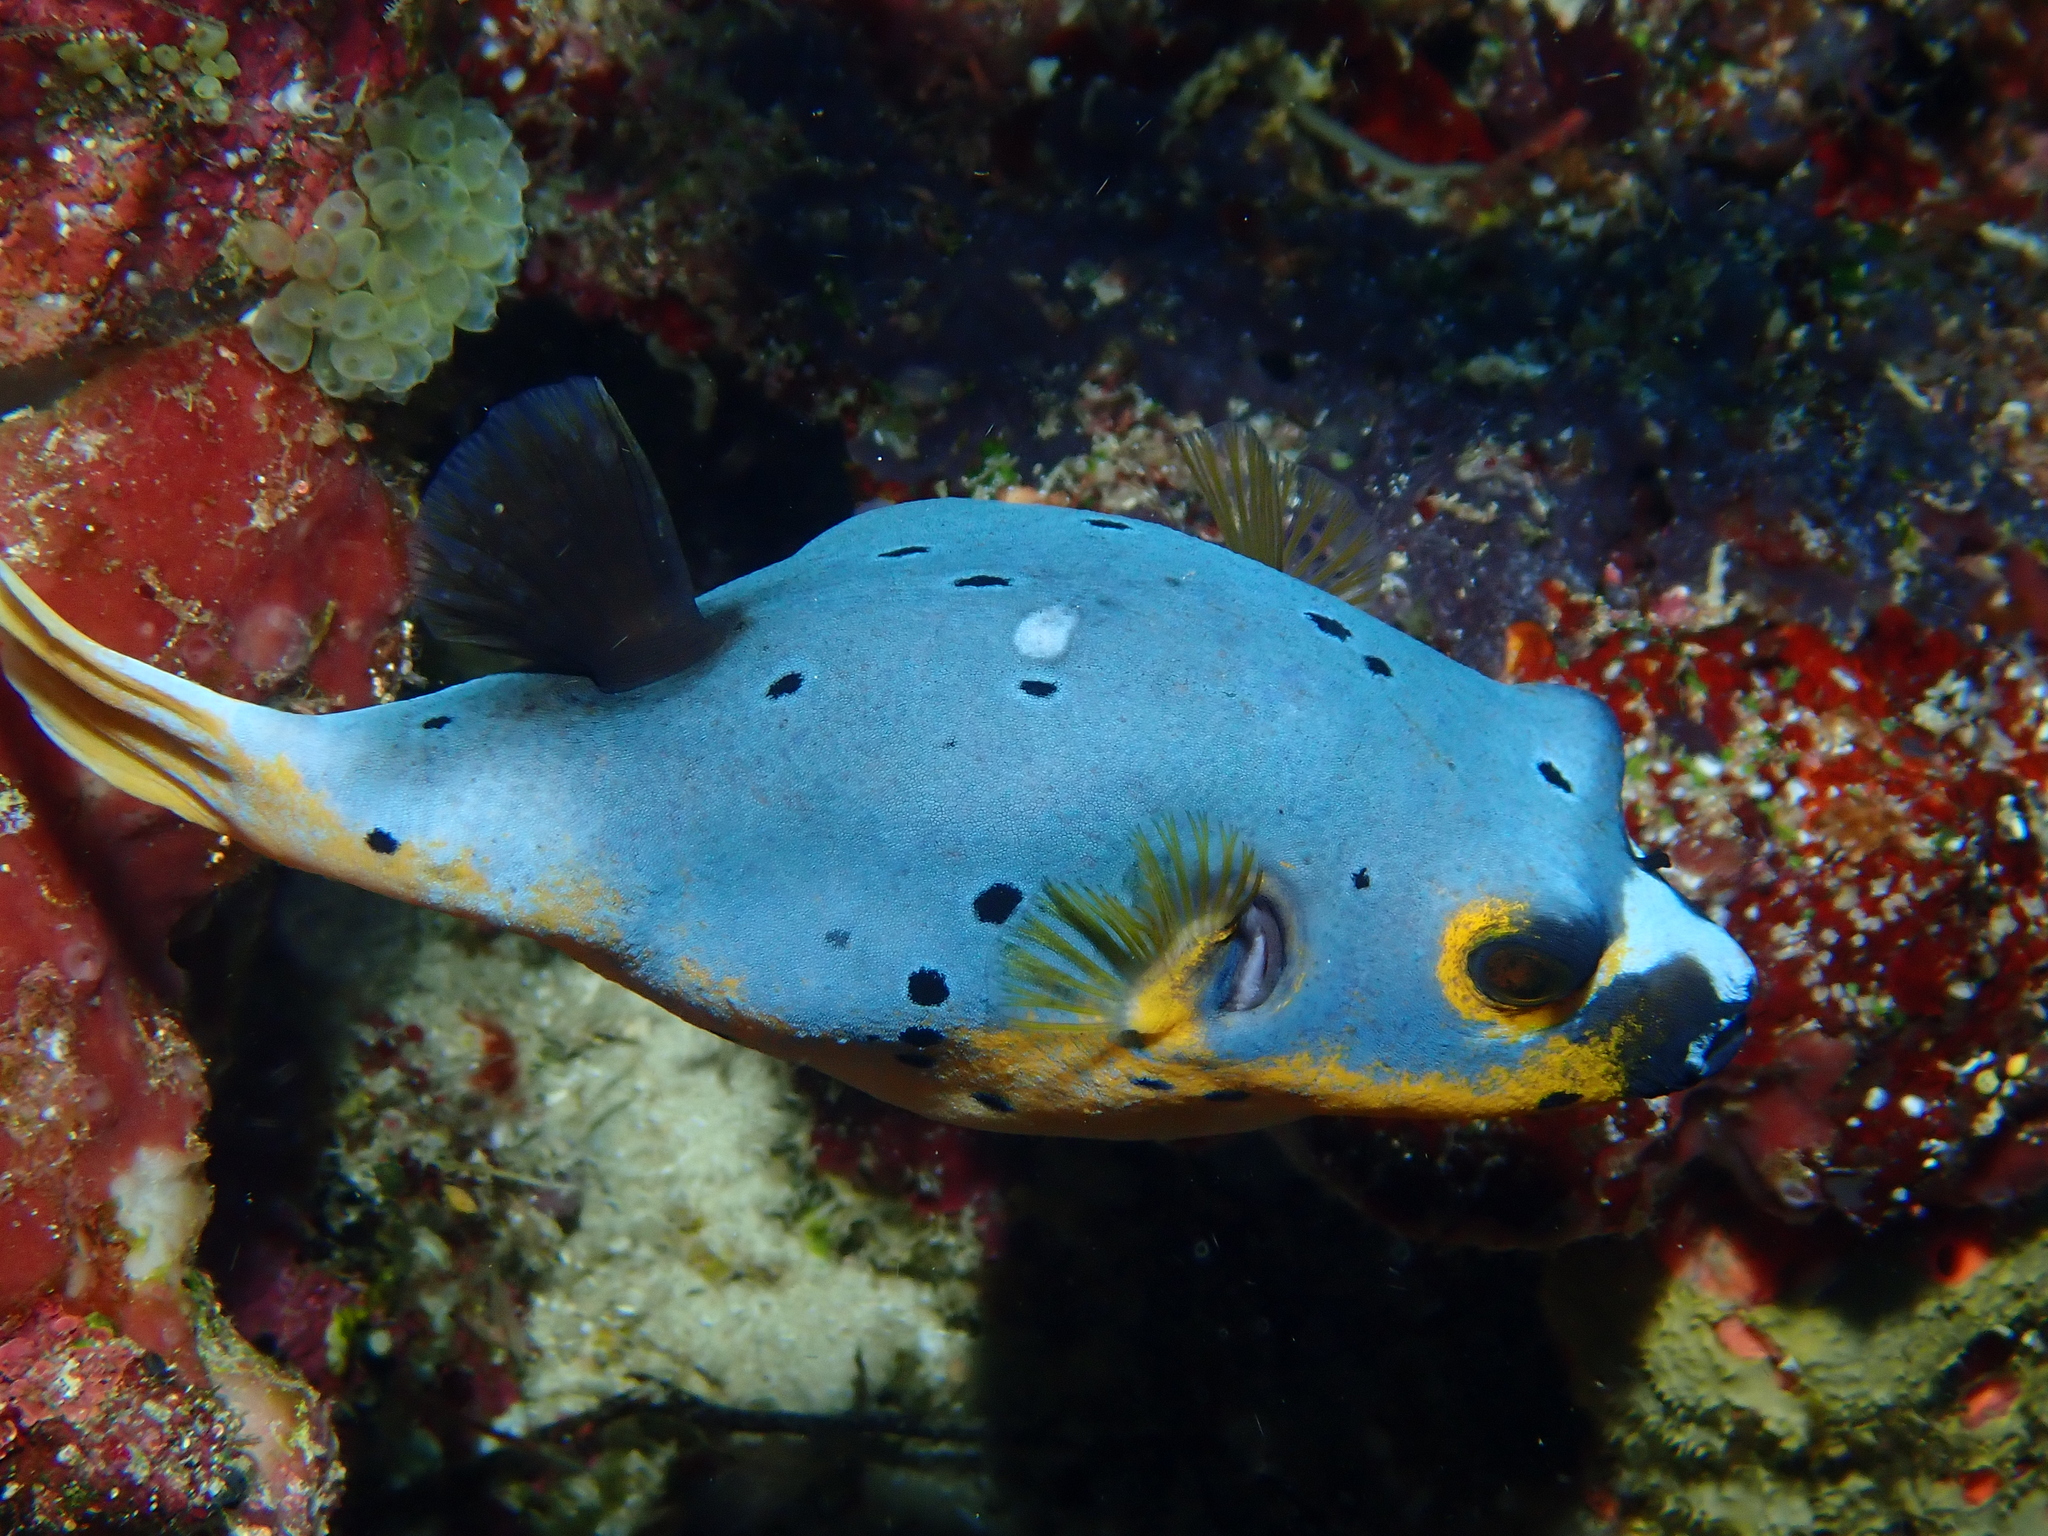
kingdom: Animalia
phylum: Chordata
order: Tetraodontiformes
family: Tetraodontidae
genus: Arothron
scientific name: Arothron nigropunctatus
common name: Black spotted blow fish
